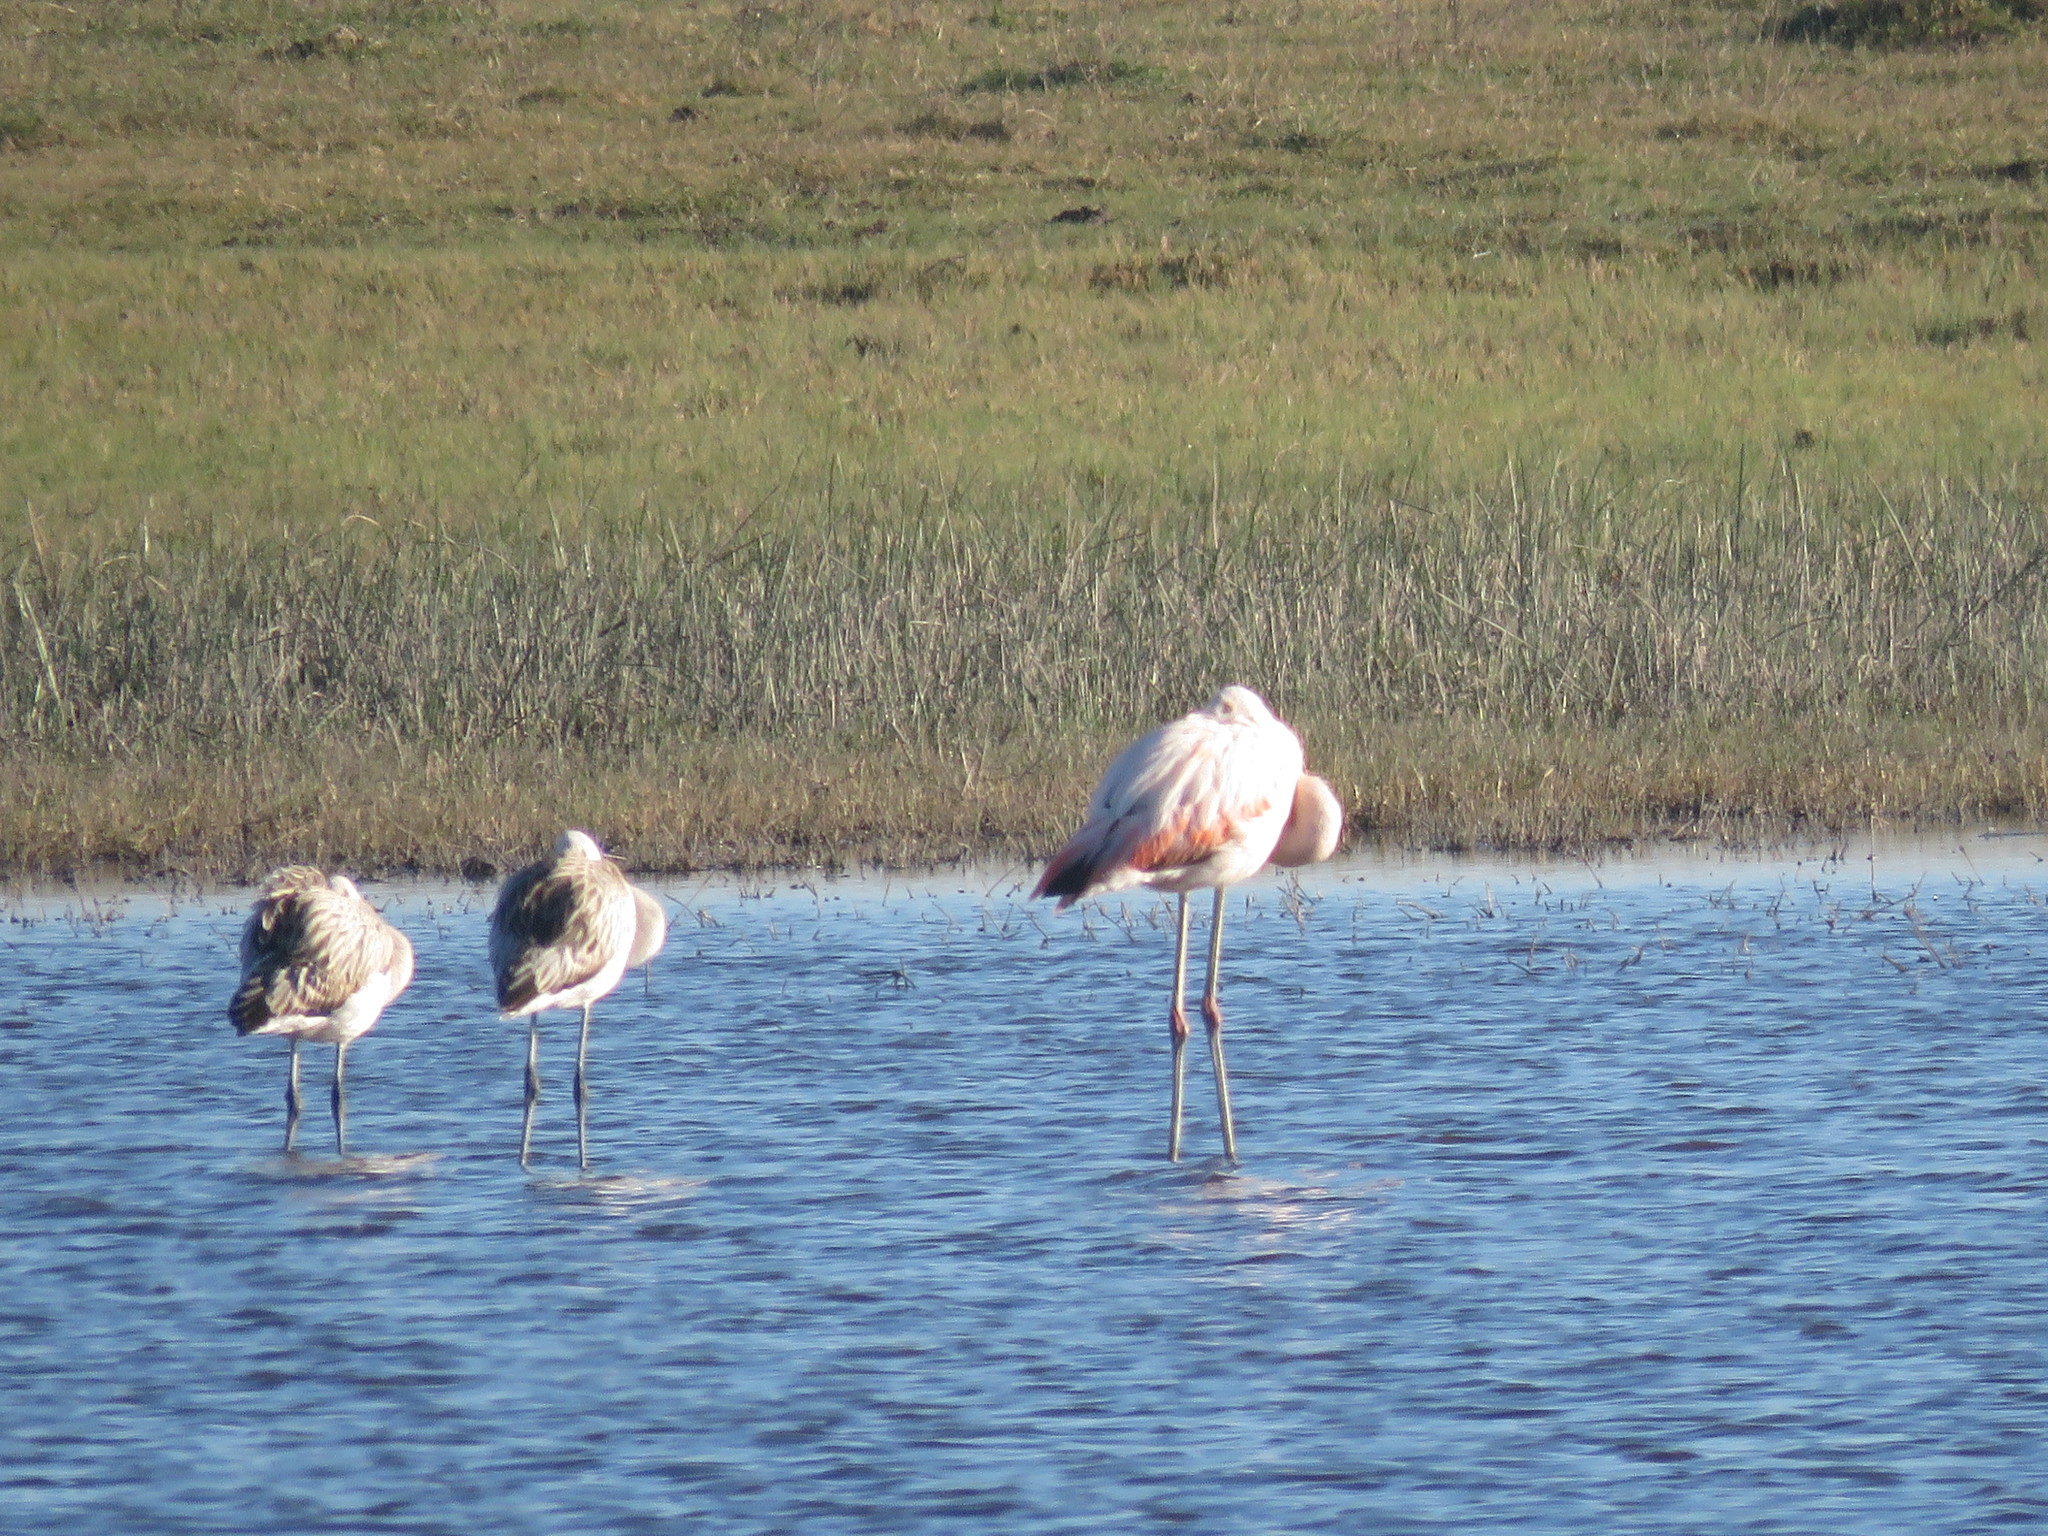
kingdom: Animalia
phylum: Chordata
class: Aves
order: Phoenicopteriformes
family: Phoenicopteridae
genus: Phoenicopterus
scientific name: Phoenicopterus chilensis
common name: Chilean flamingo
